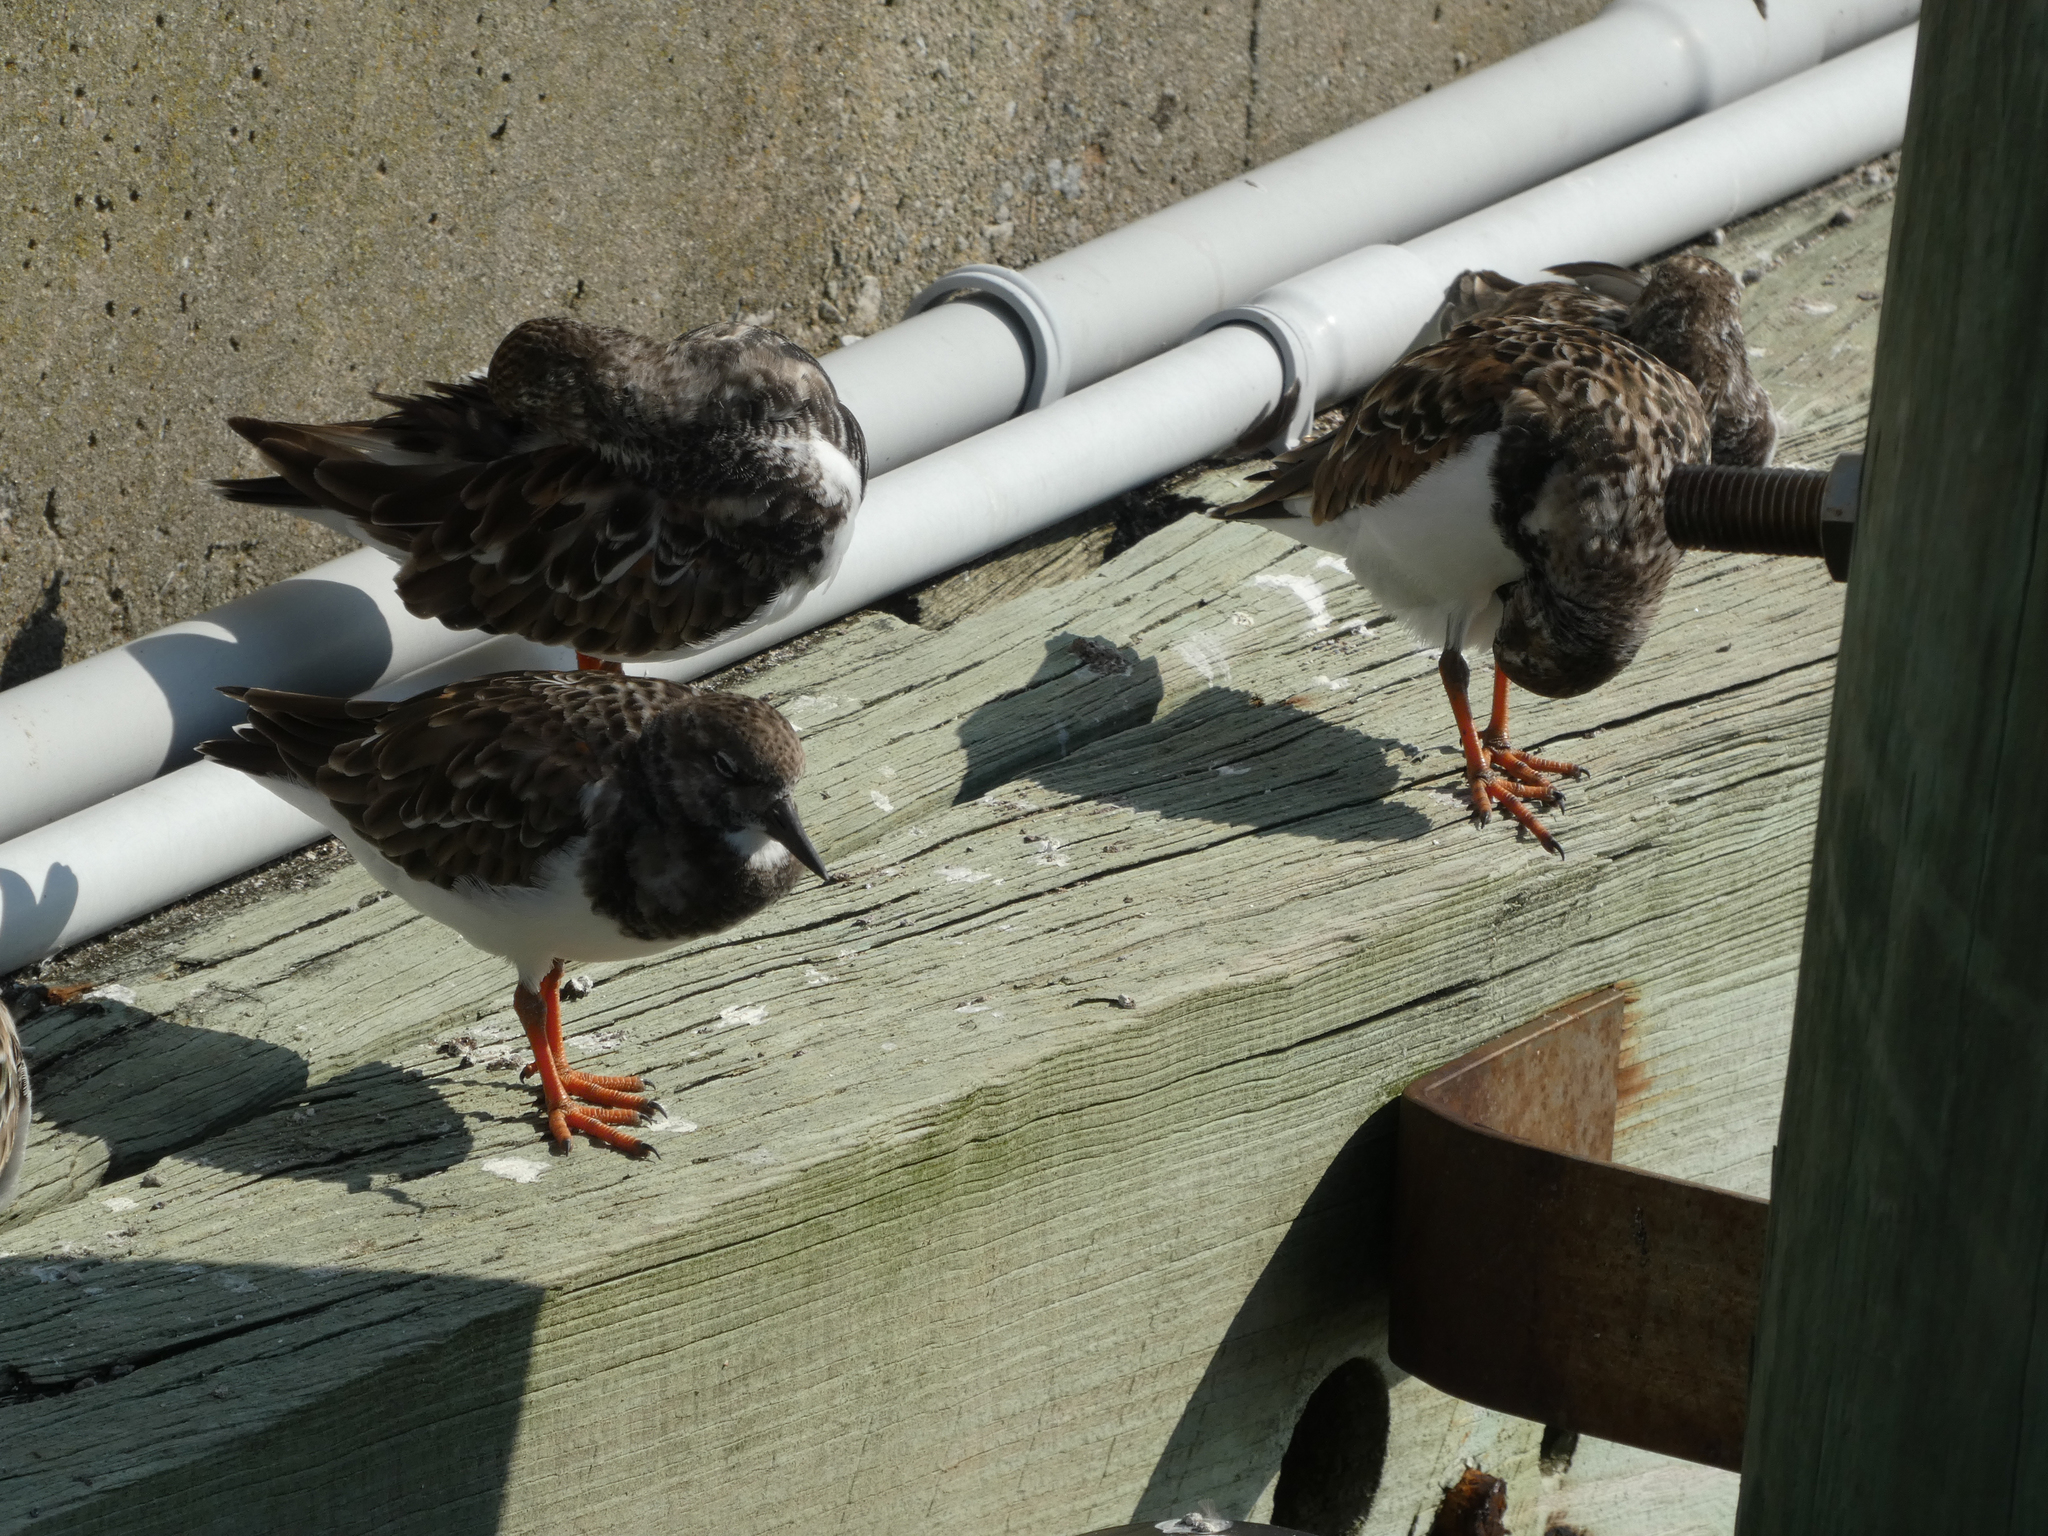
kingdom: Animalia
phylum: Chordata
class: Aves
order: Charadriiformes
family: Scolopacidae
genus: Arenaria
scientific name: Arenaria interpres
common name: Ruddy turnstone
